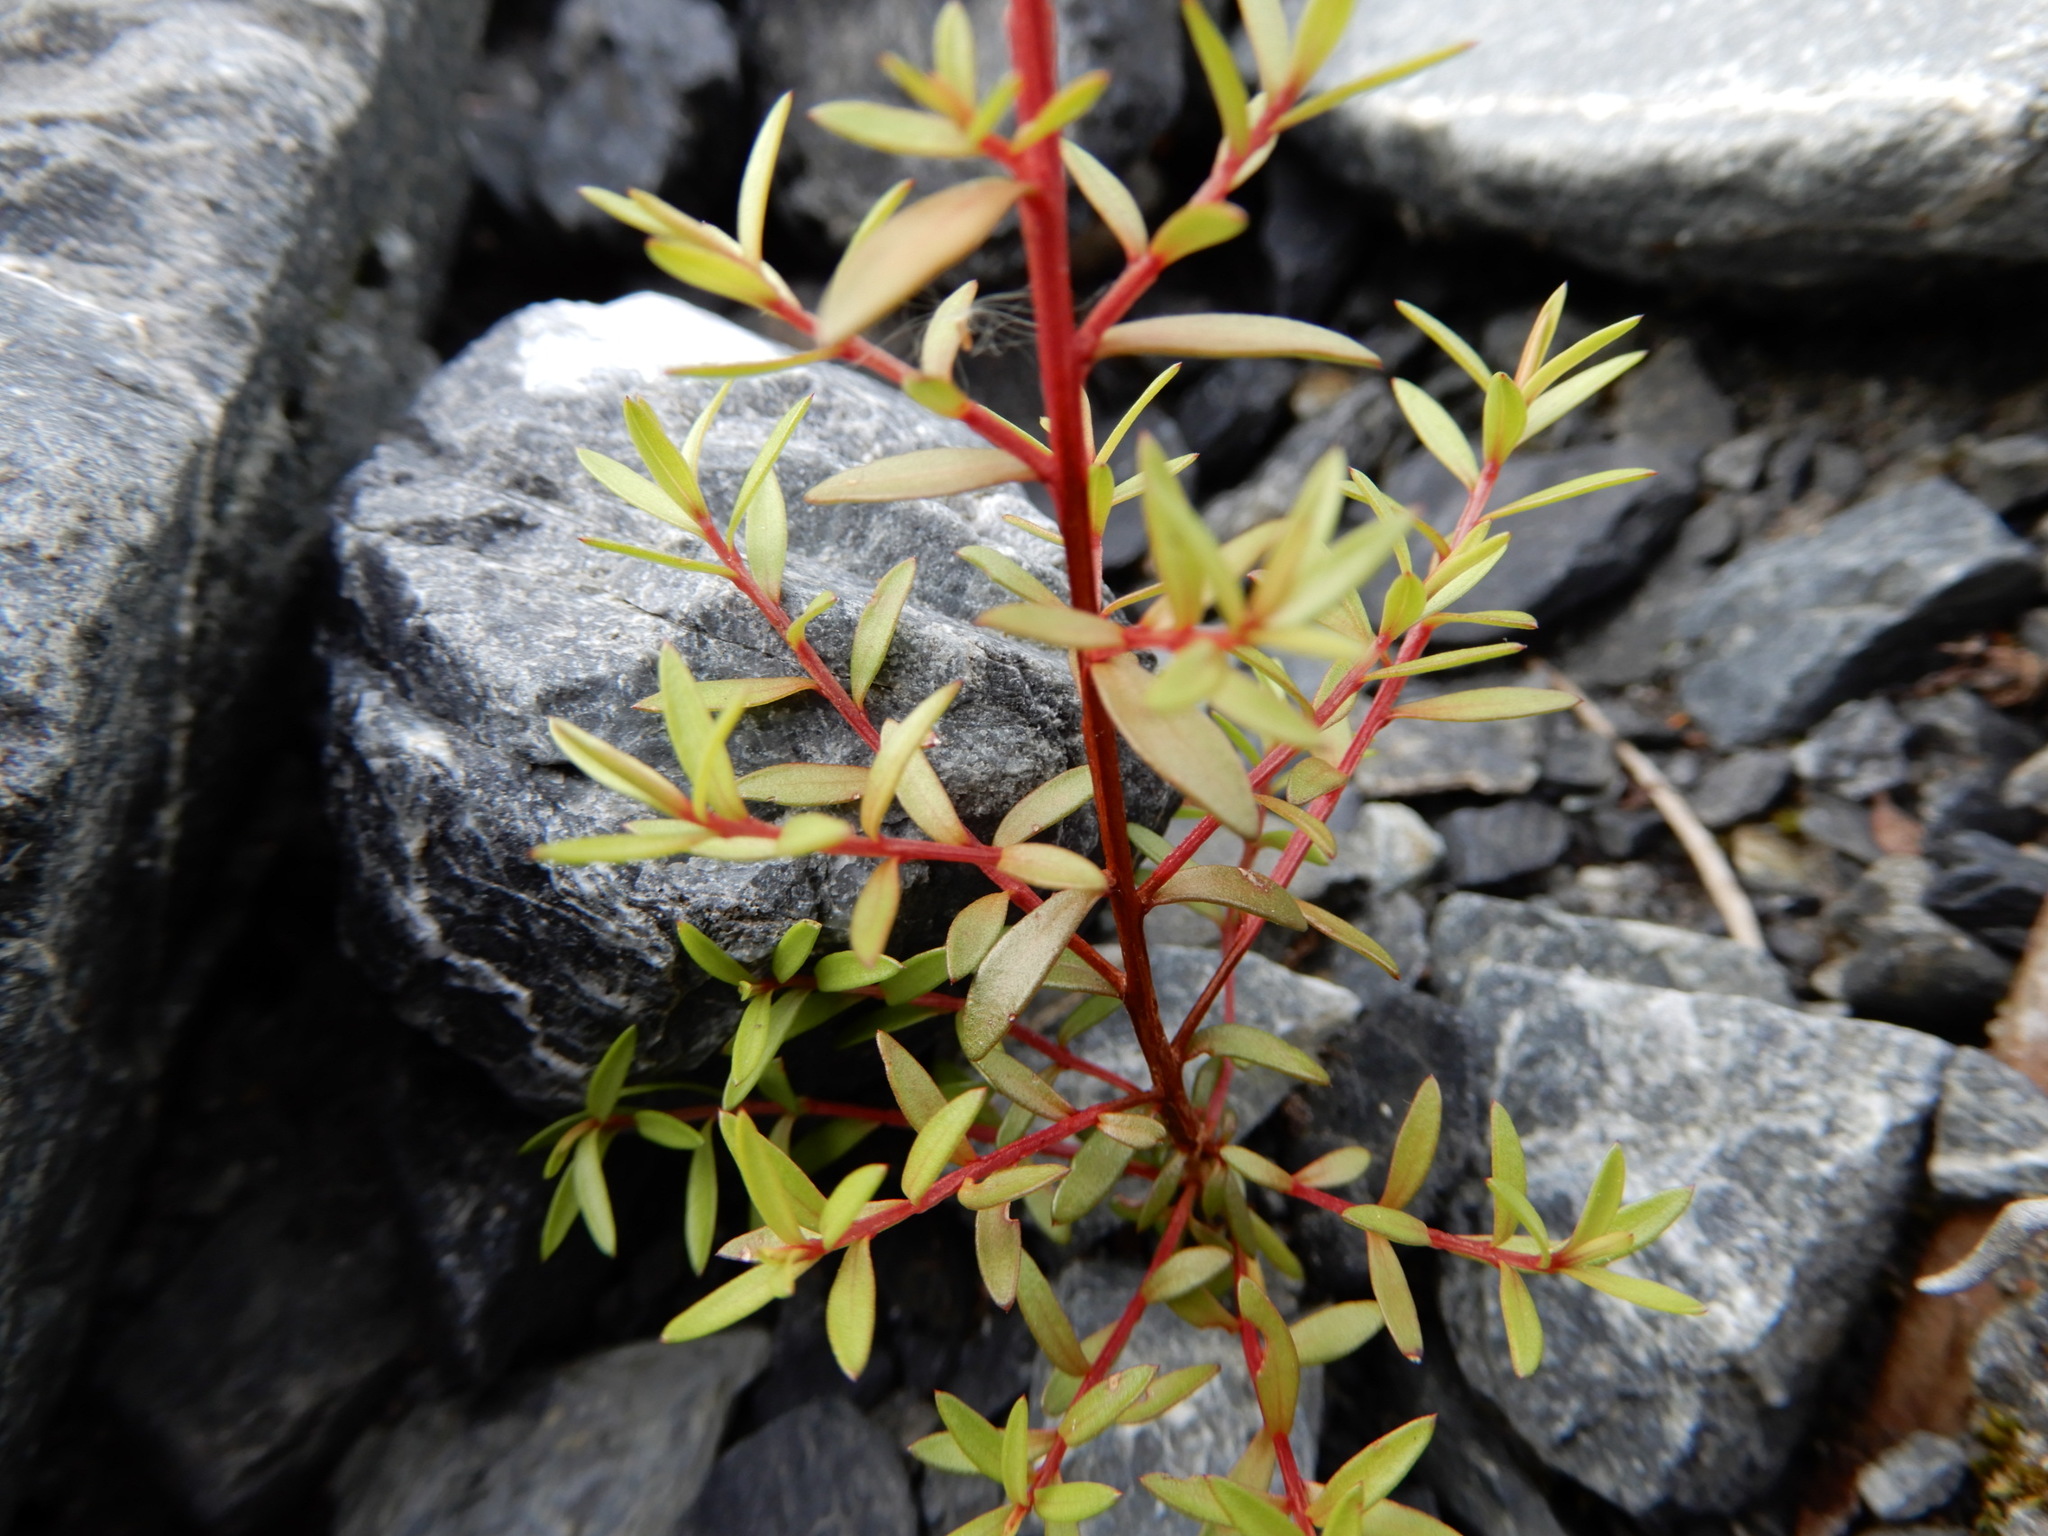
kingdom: Plantae
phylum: Tracheophyta
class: Magnoliopsida
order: Myrtales
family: Myrtaceae
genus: Kunzea
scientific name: Kunzea robusta
